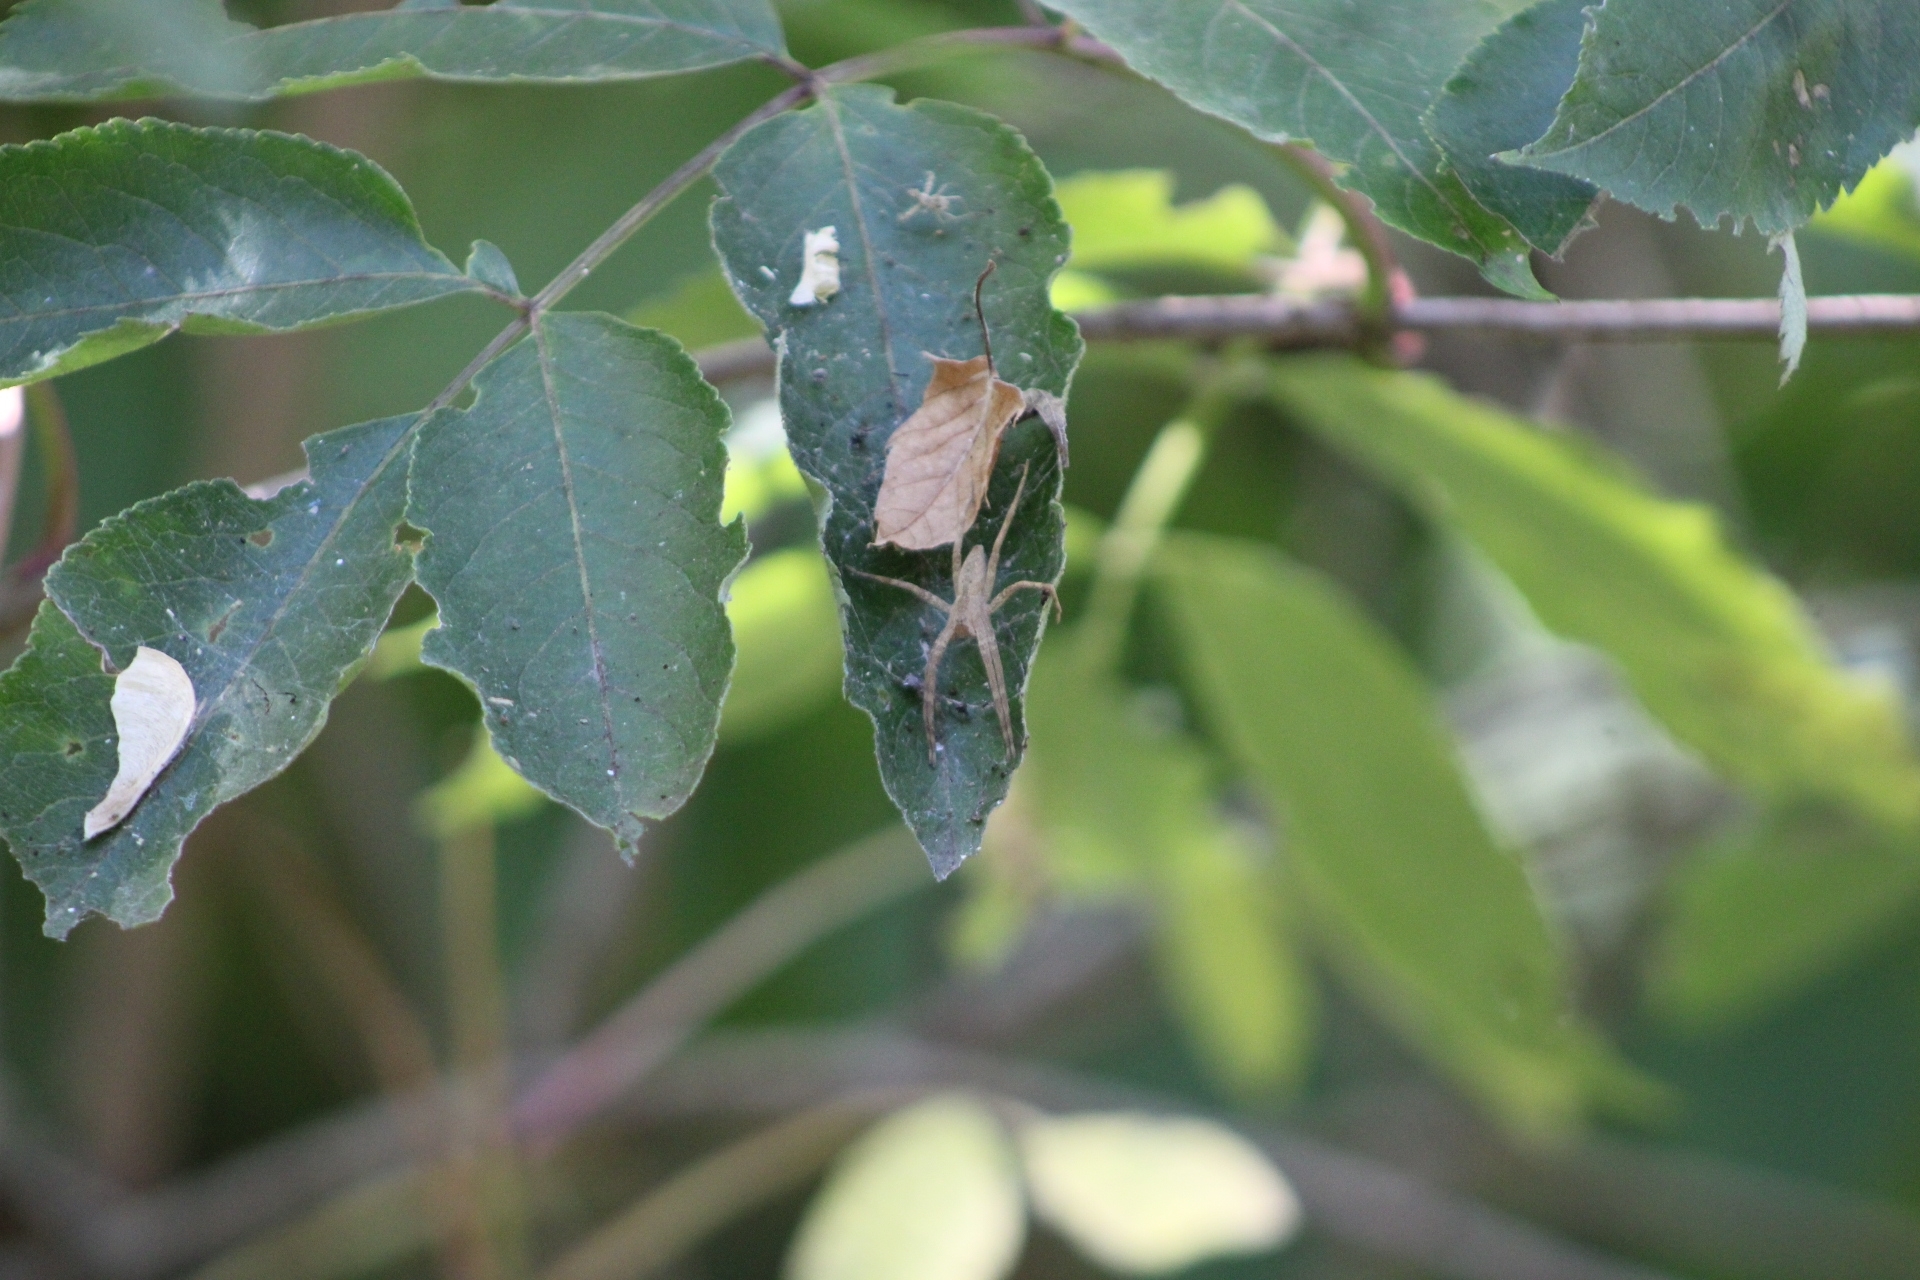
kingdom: Animalia
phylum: Arthropoda
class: Arachnida
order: Araneae
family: Pisauridae
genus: Pisaurina
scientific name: Pisaurina mira
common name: American nursery web spider
